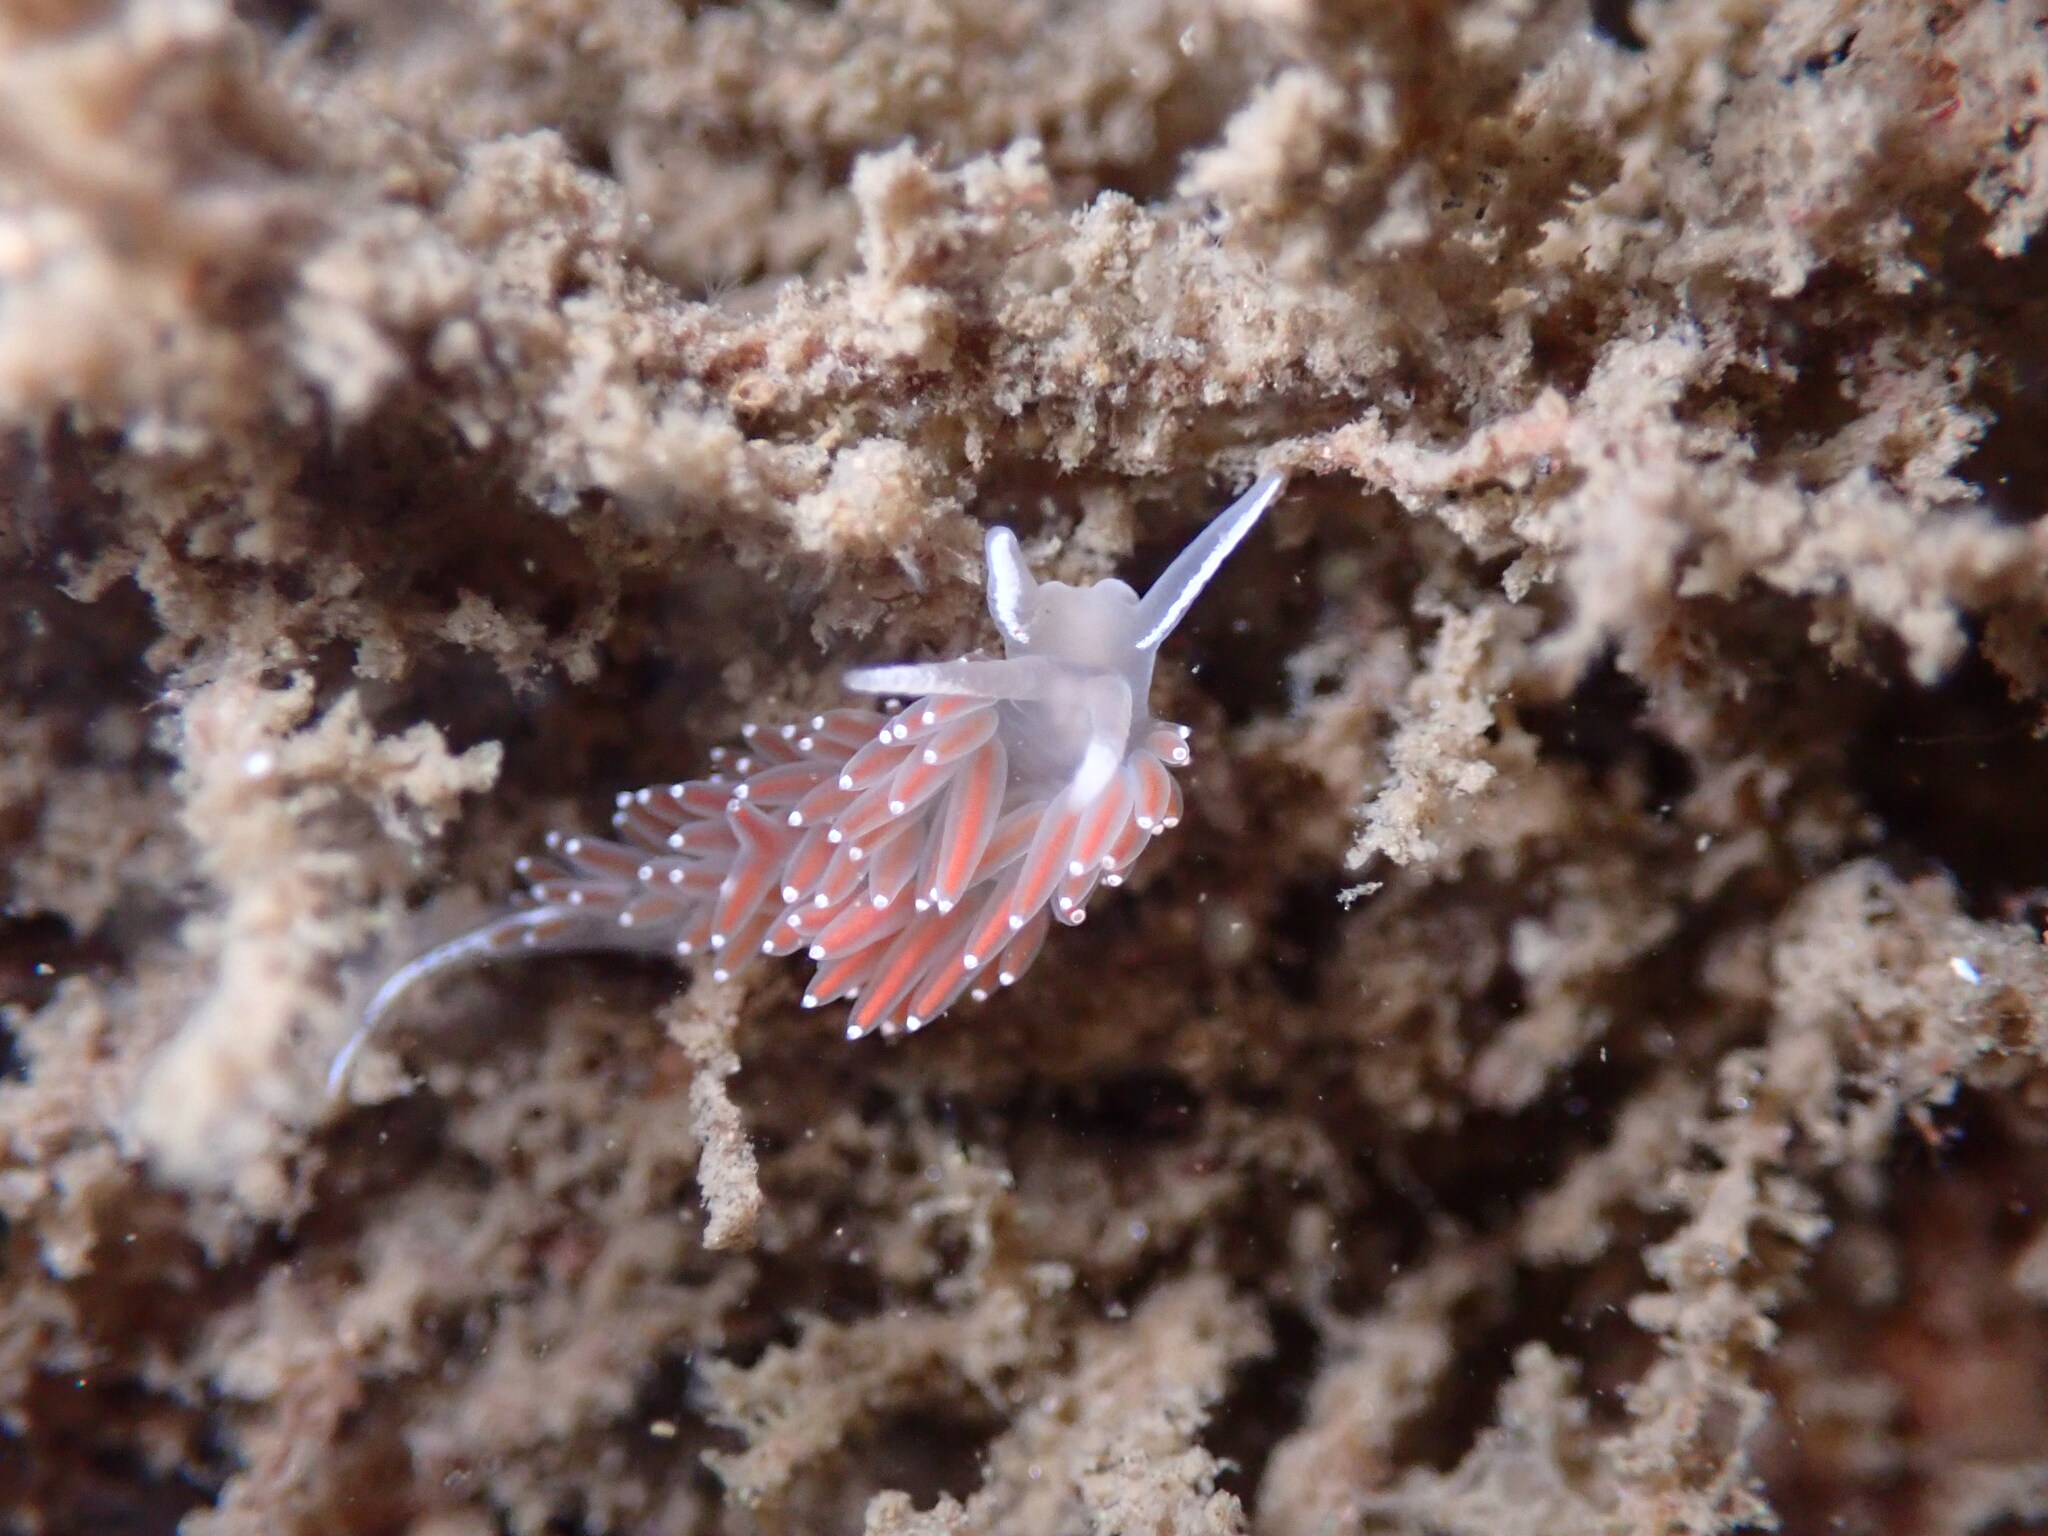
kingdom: Animalia
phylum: Mollusca
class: Gastropoda
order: Nudibranchia
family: Coryphellidae
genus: Coryphella
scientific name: Coryphella verrucosa
